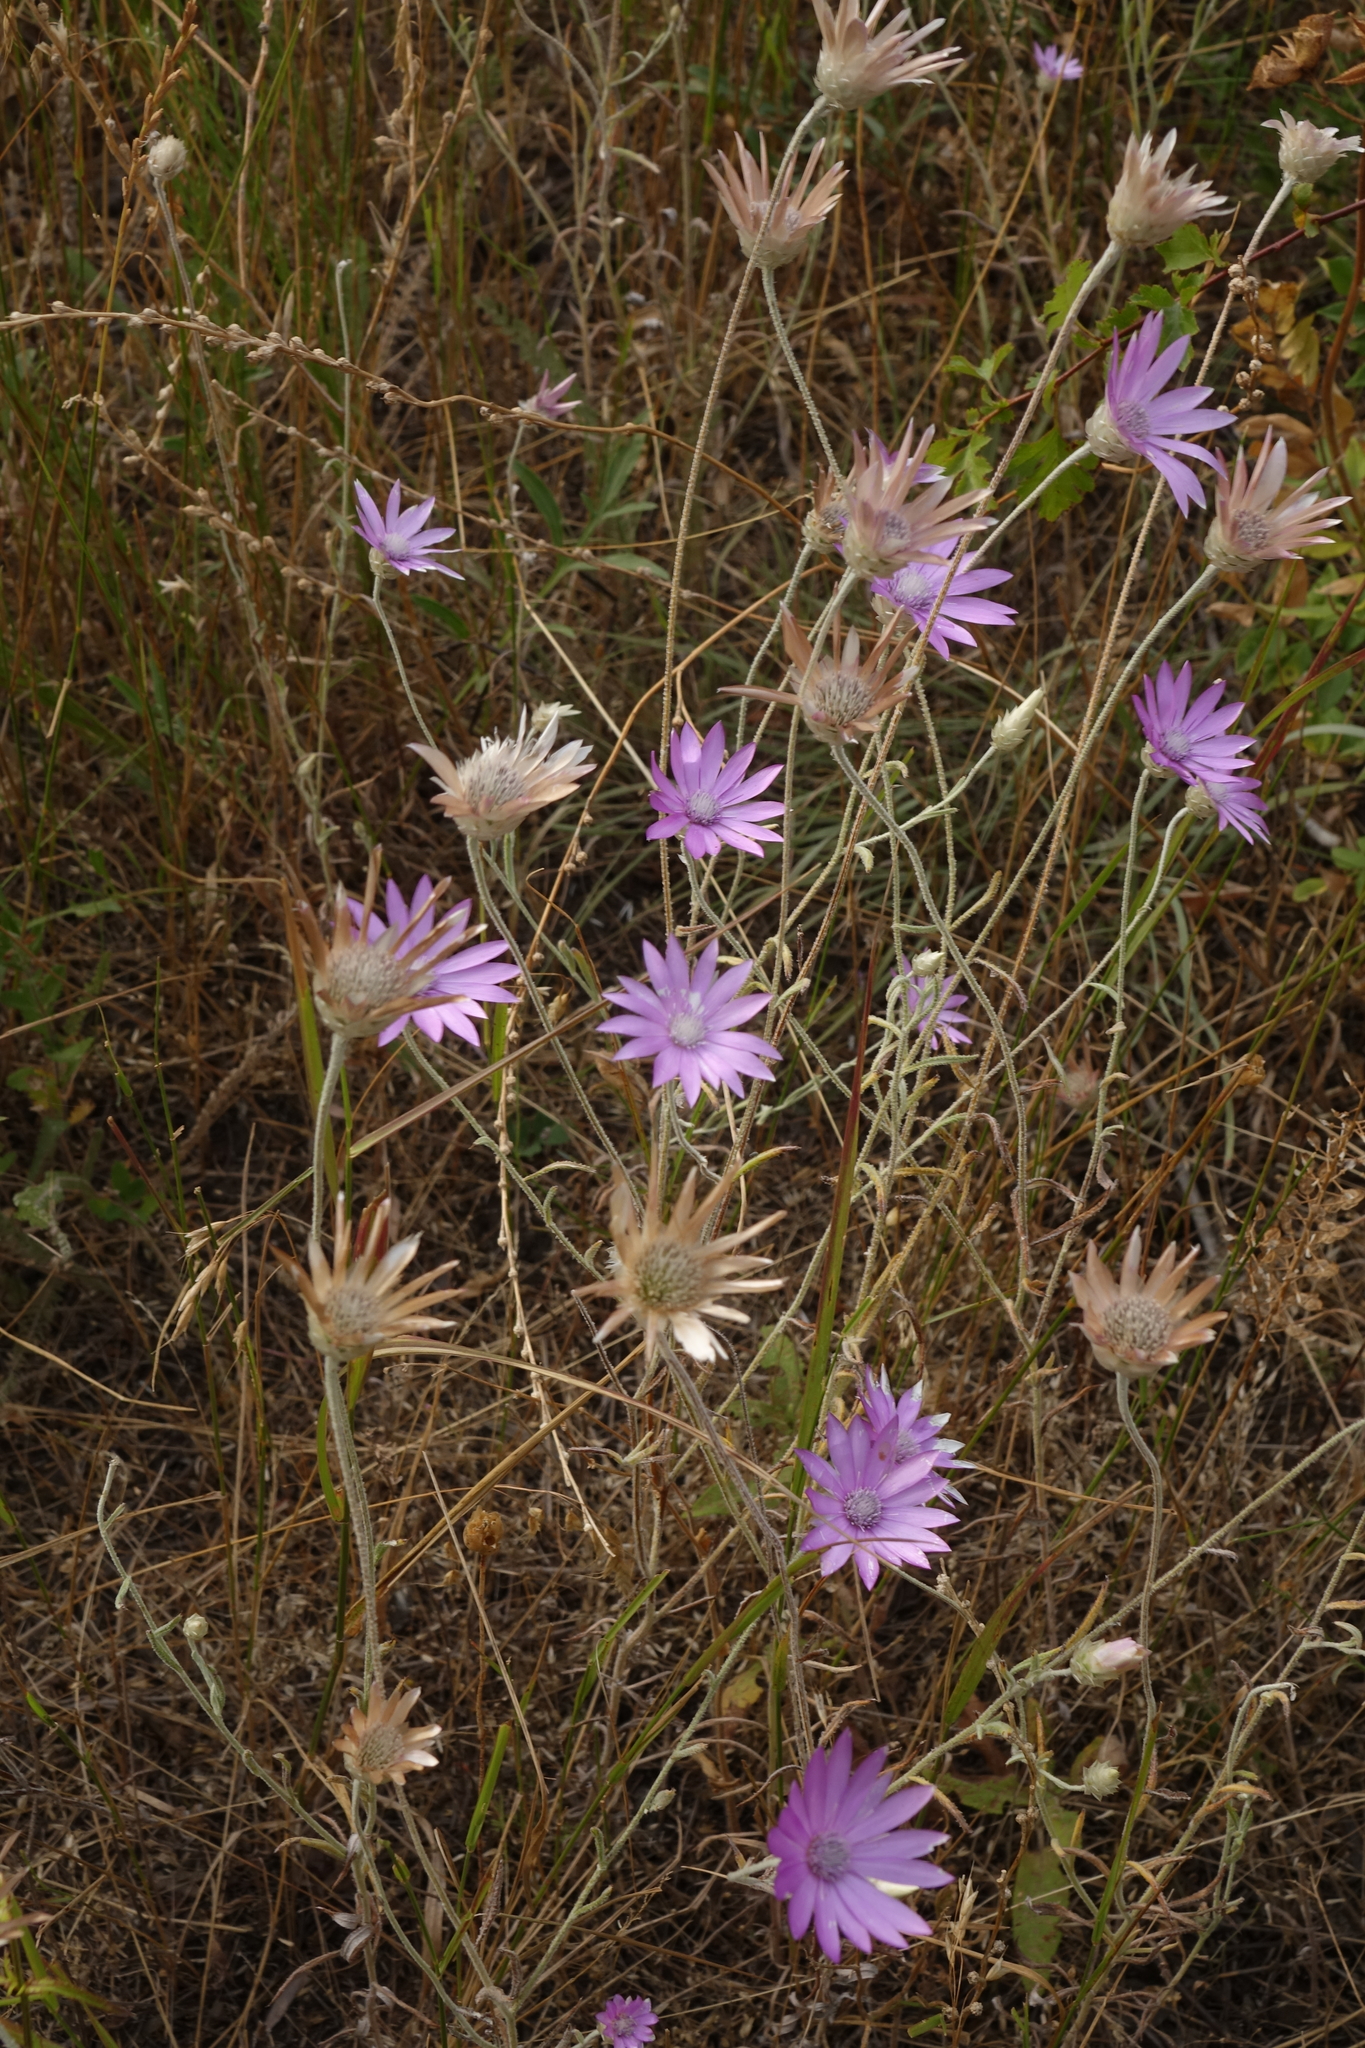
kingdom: Plantae
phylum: Tracheophyta
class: Magnoliopsida
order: Asterales
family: Asteraceae
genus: Xeranthemum
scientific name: Xeranthemum annuum
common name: Immortelle
